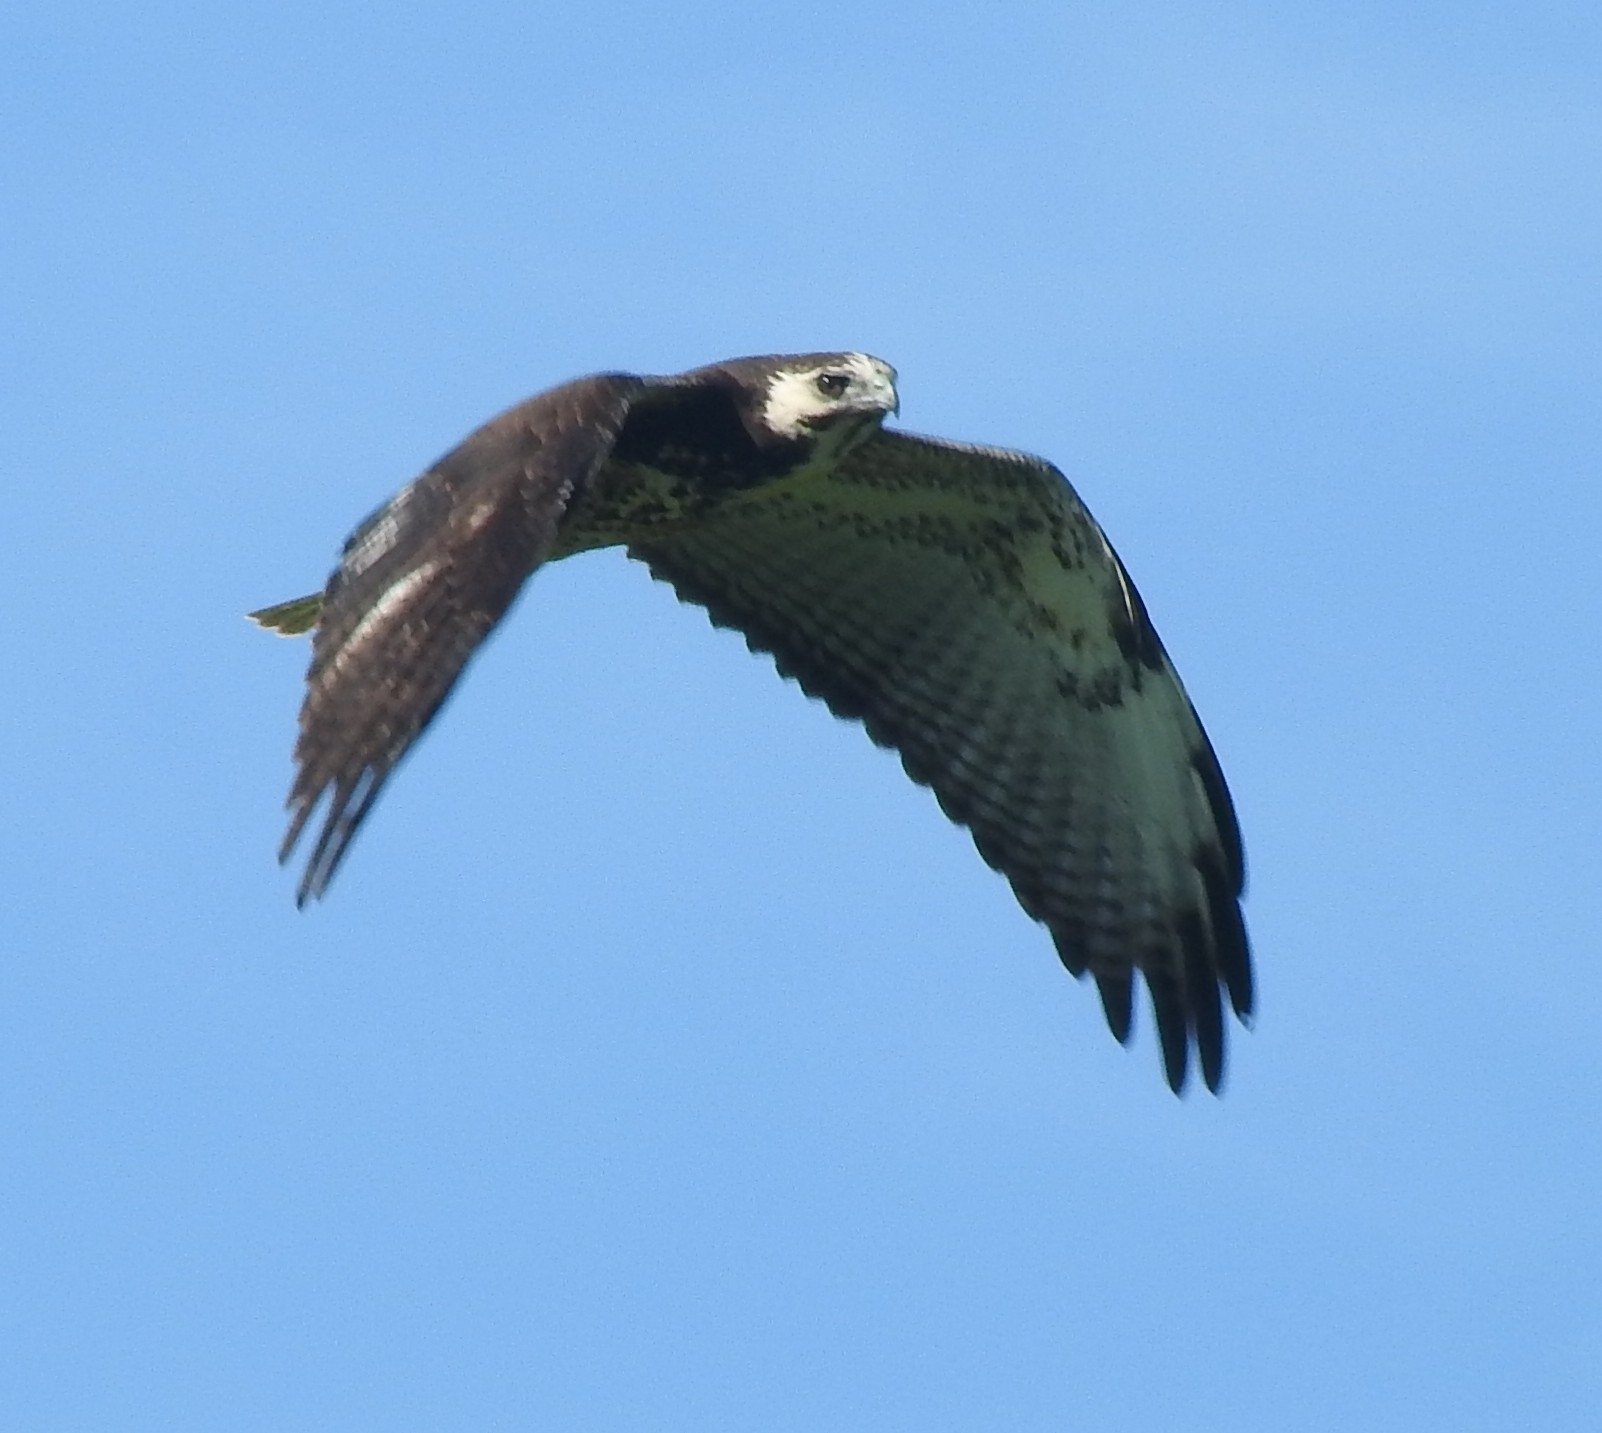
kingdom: Animalia
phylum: Chordata
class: Aves
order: Accipitriformes
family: Accipitridae
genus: Buteo
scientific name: Buteo albicaudatus
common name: White-tailed hawk
